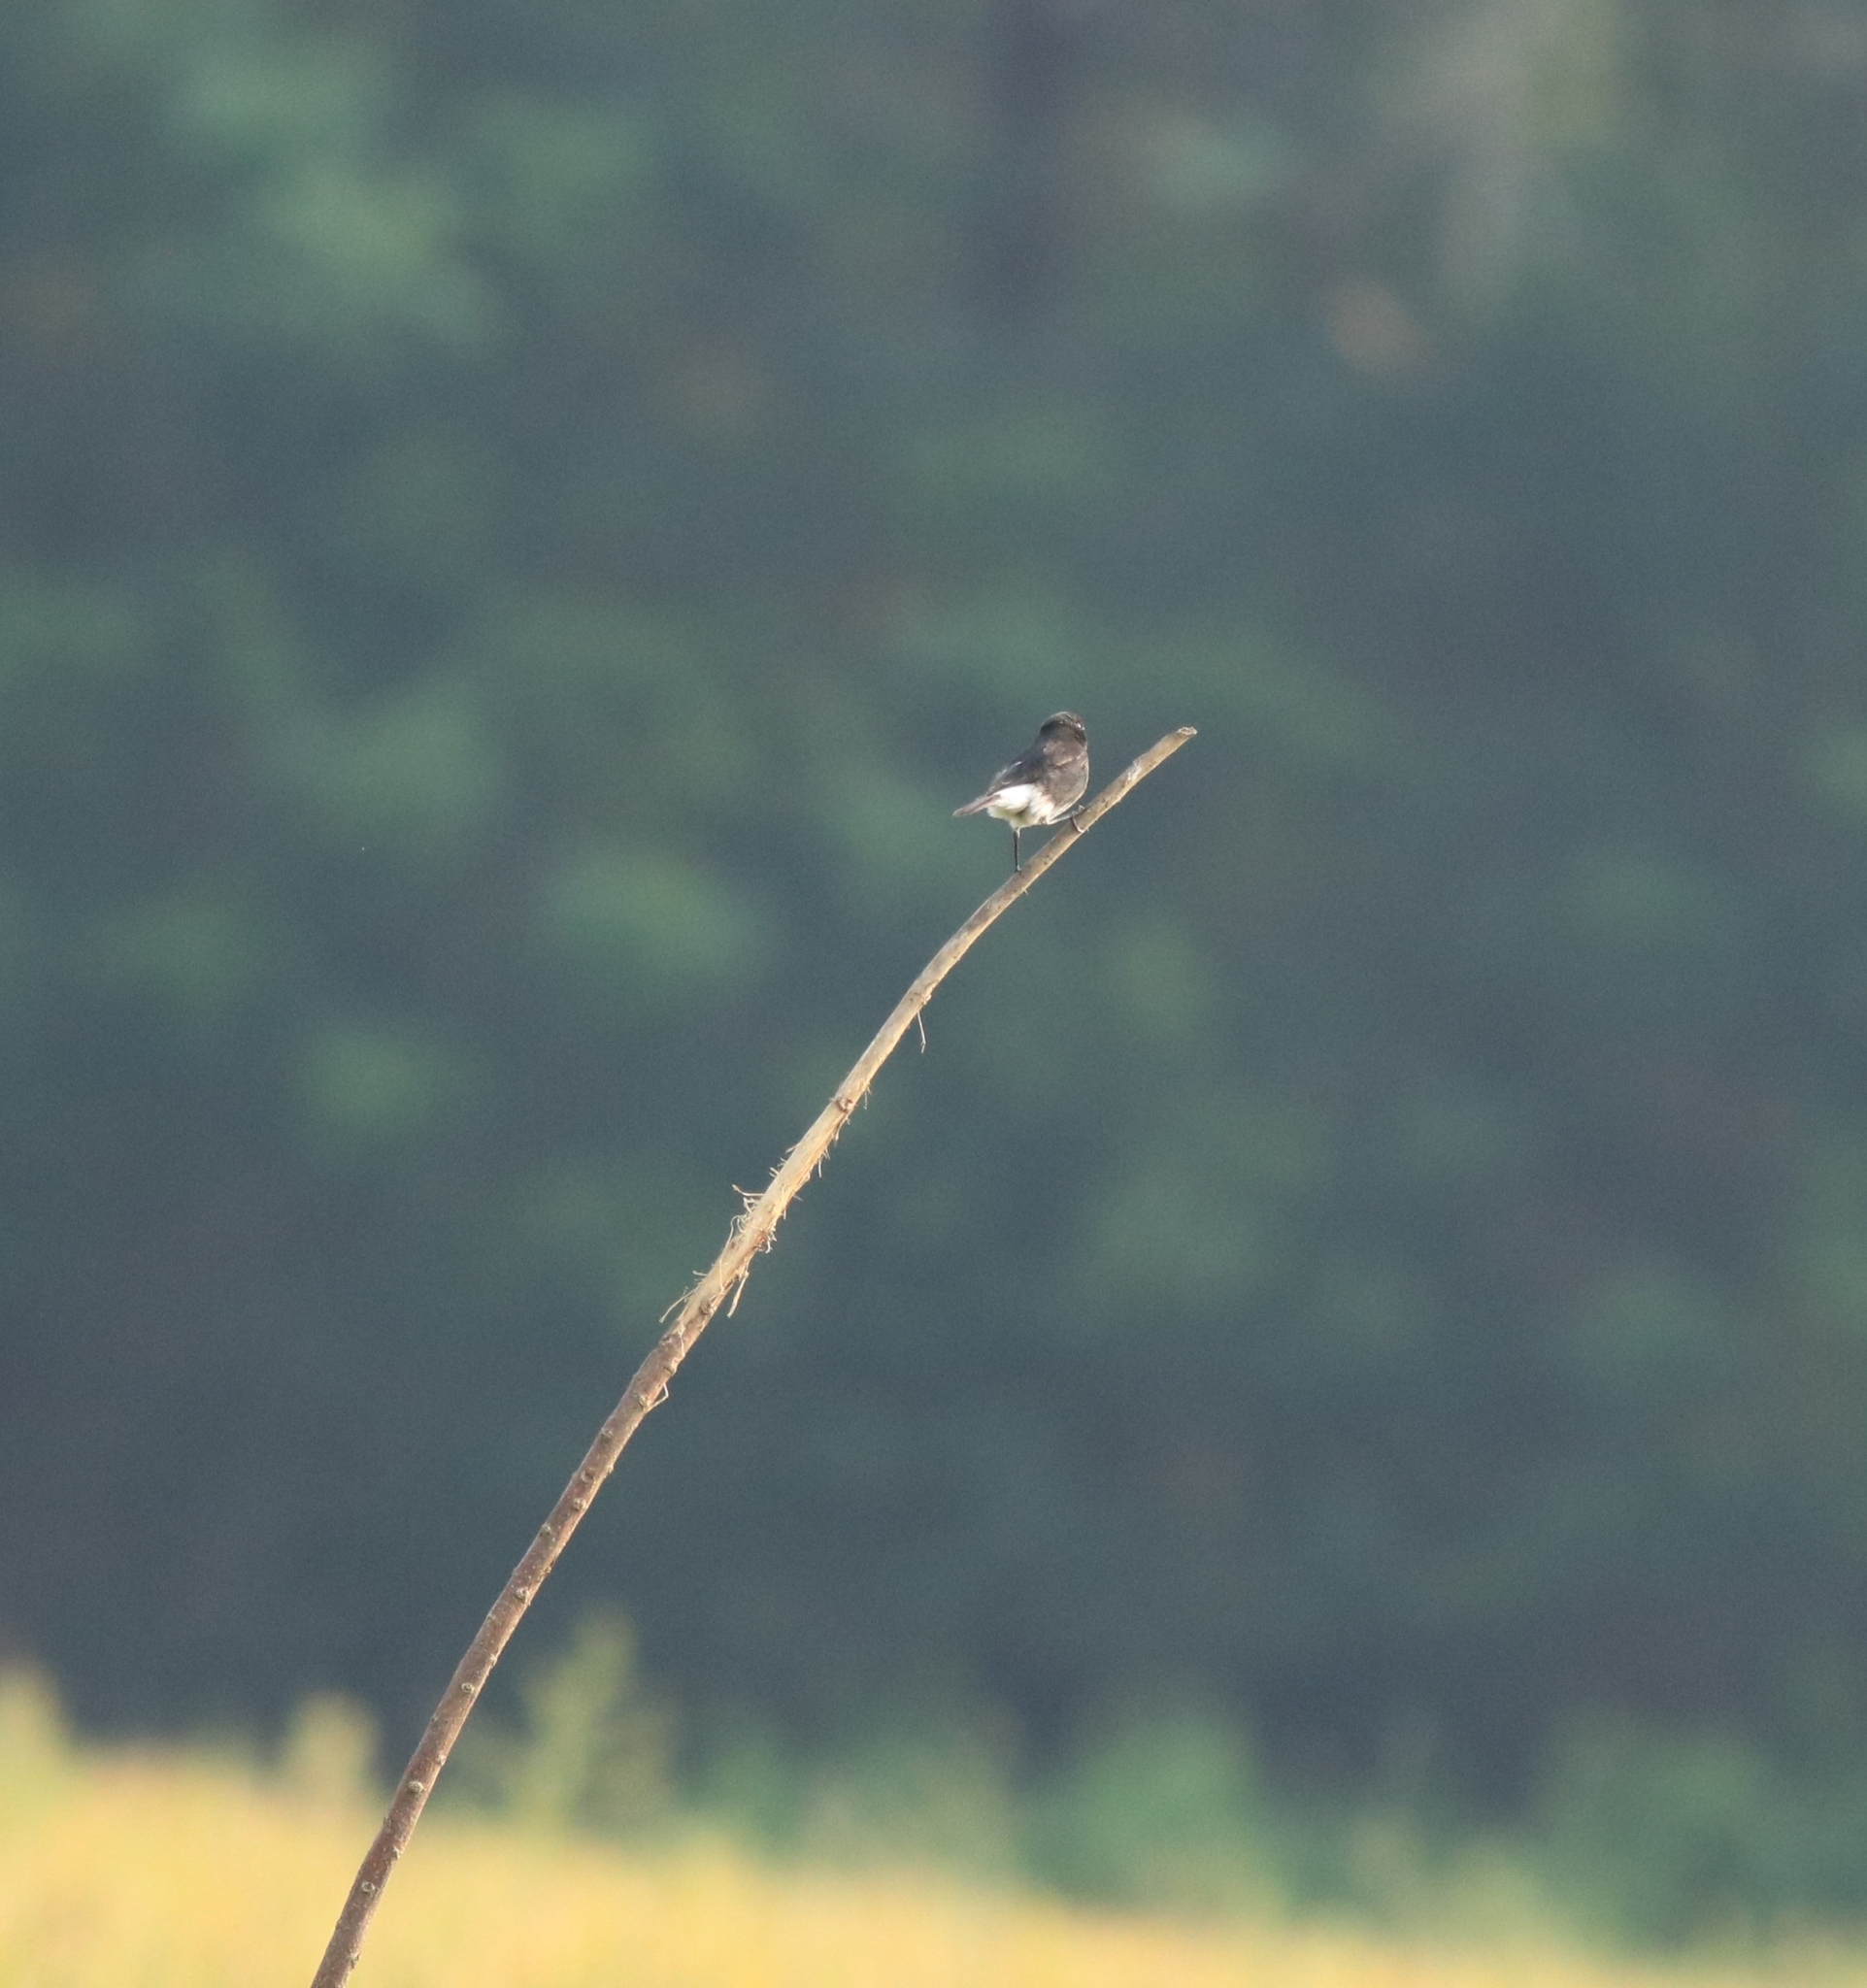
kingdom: Animalia
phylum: Chordata
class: Aves
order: Passeriformes
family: Muscicapidae
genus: Saxicola
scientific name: Saxicola caprata
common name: Pied bush chat
